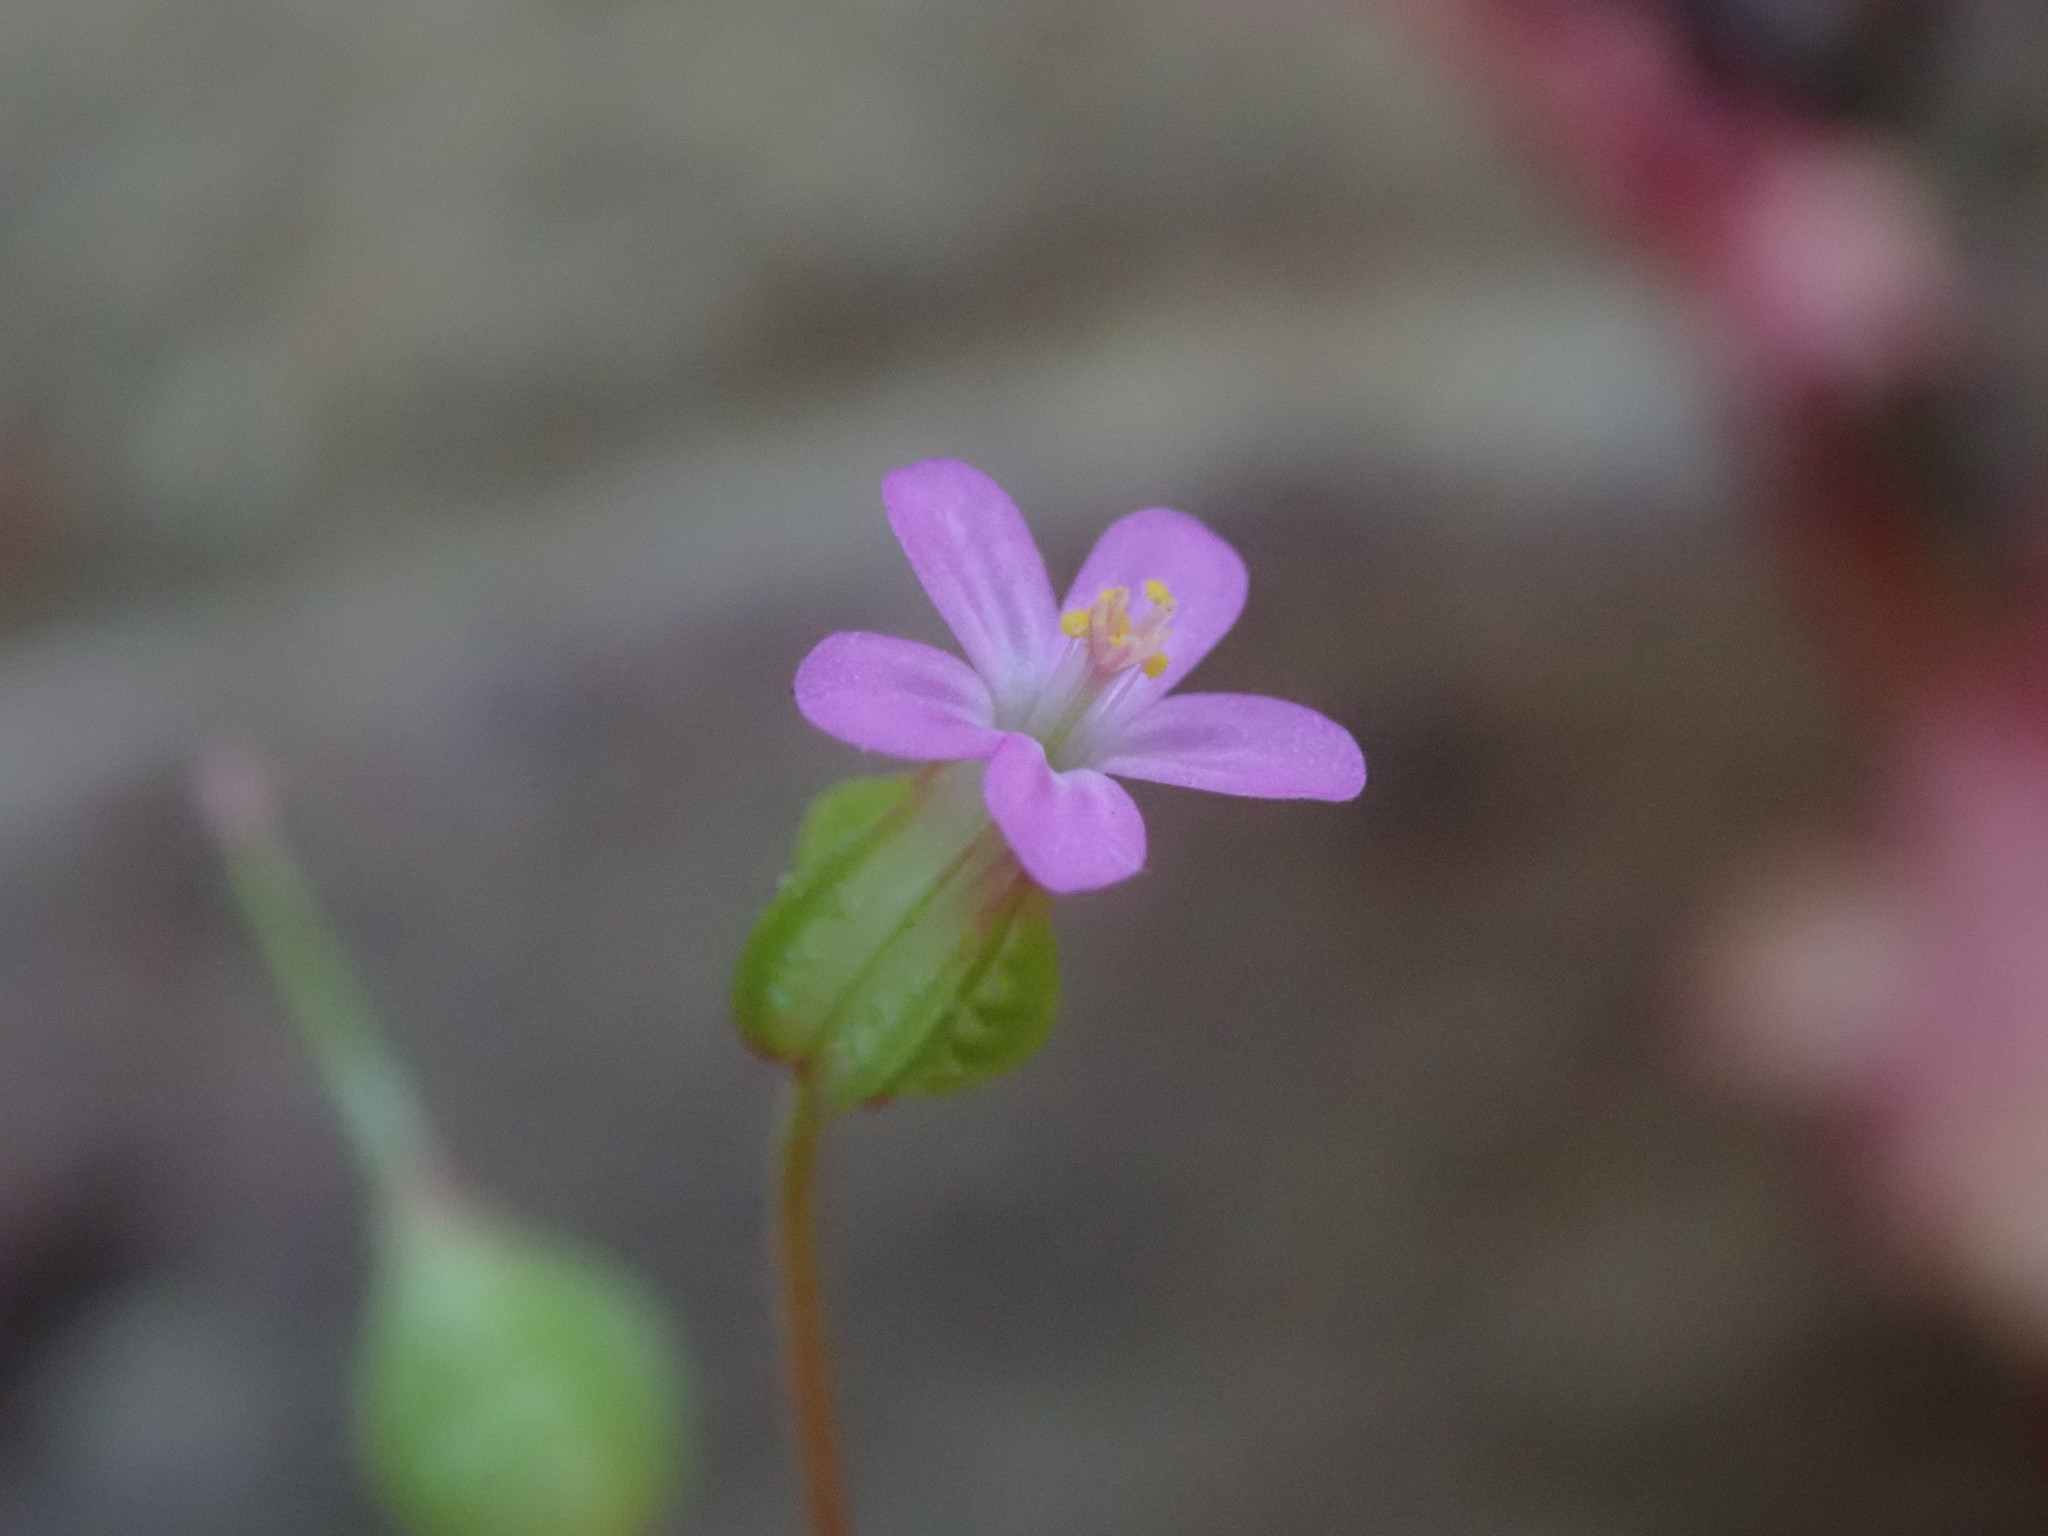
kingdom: Plantae
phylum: Tracheophyta
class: Magnoliopsida
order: Geraniales
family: Geraniaceae
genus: Geranium
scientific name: Geranium lucidum
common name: Shining crane's-bill
